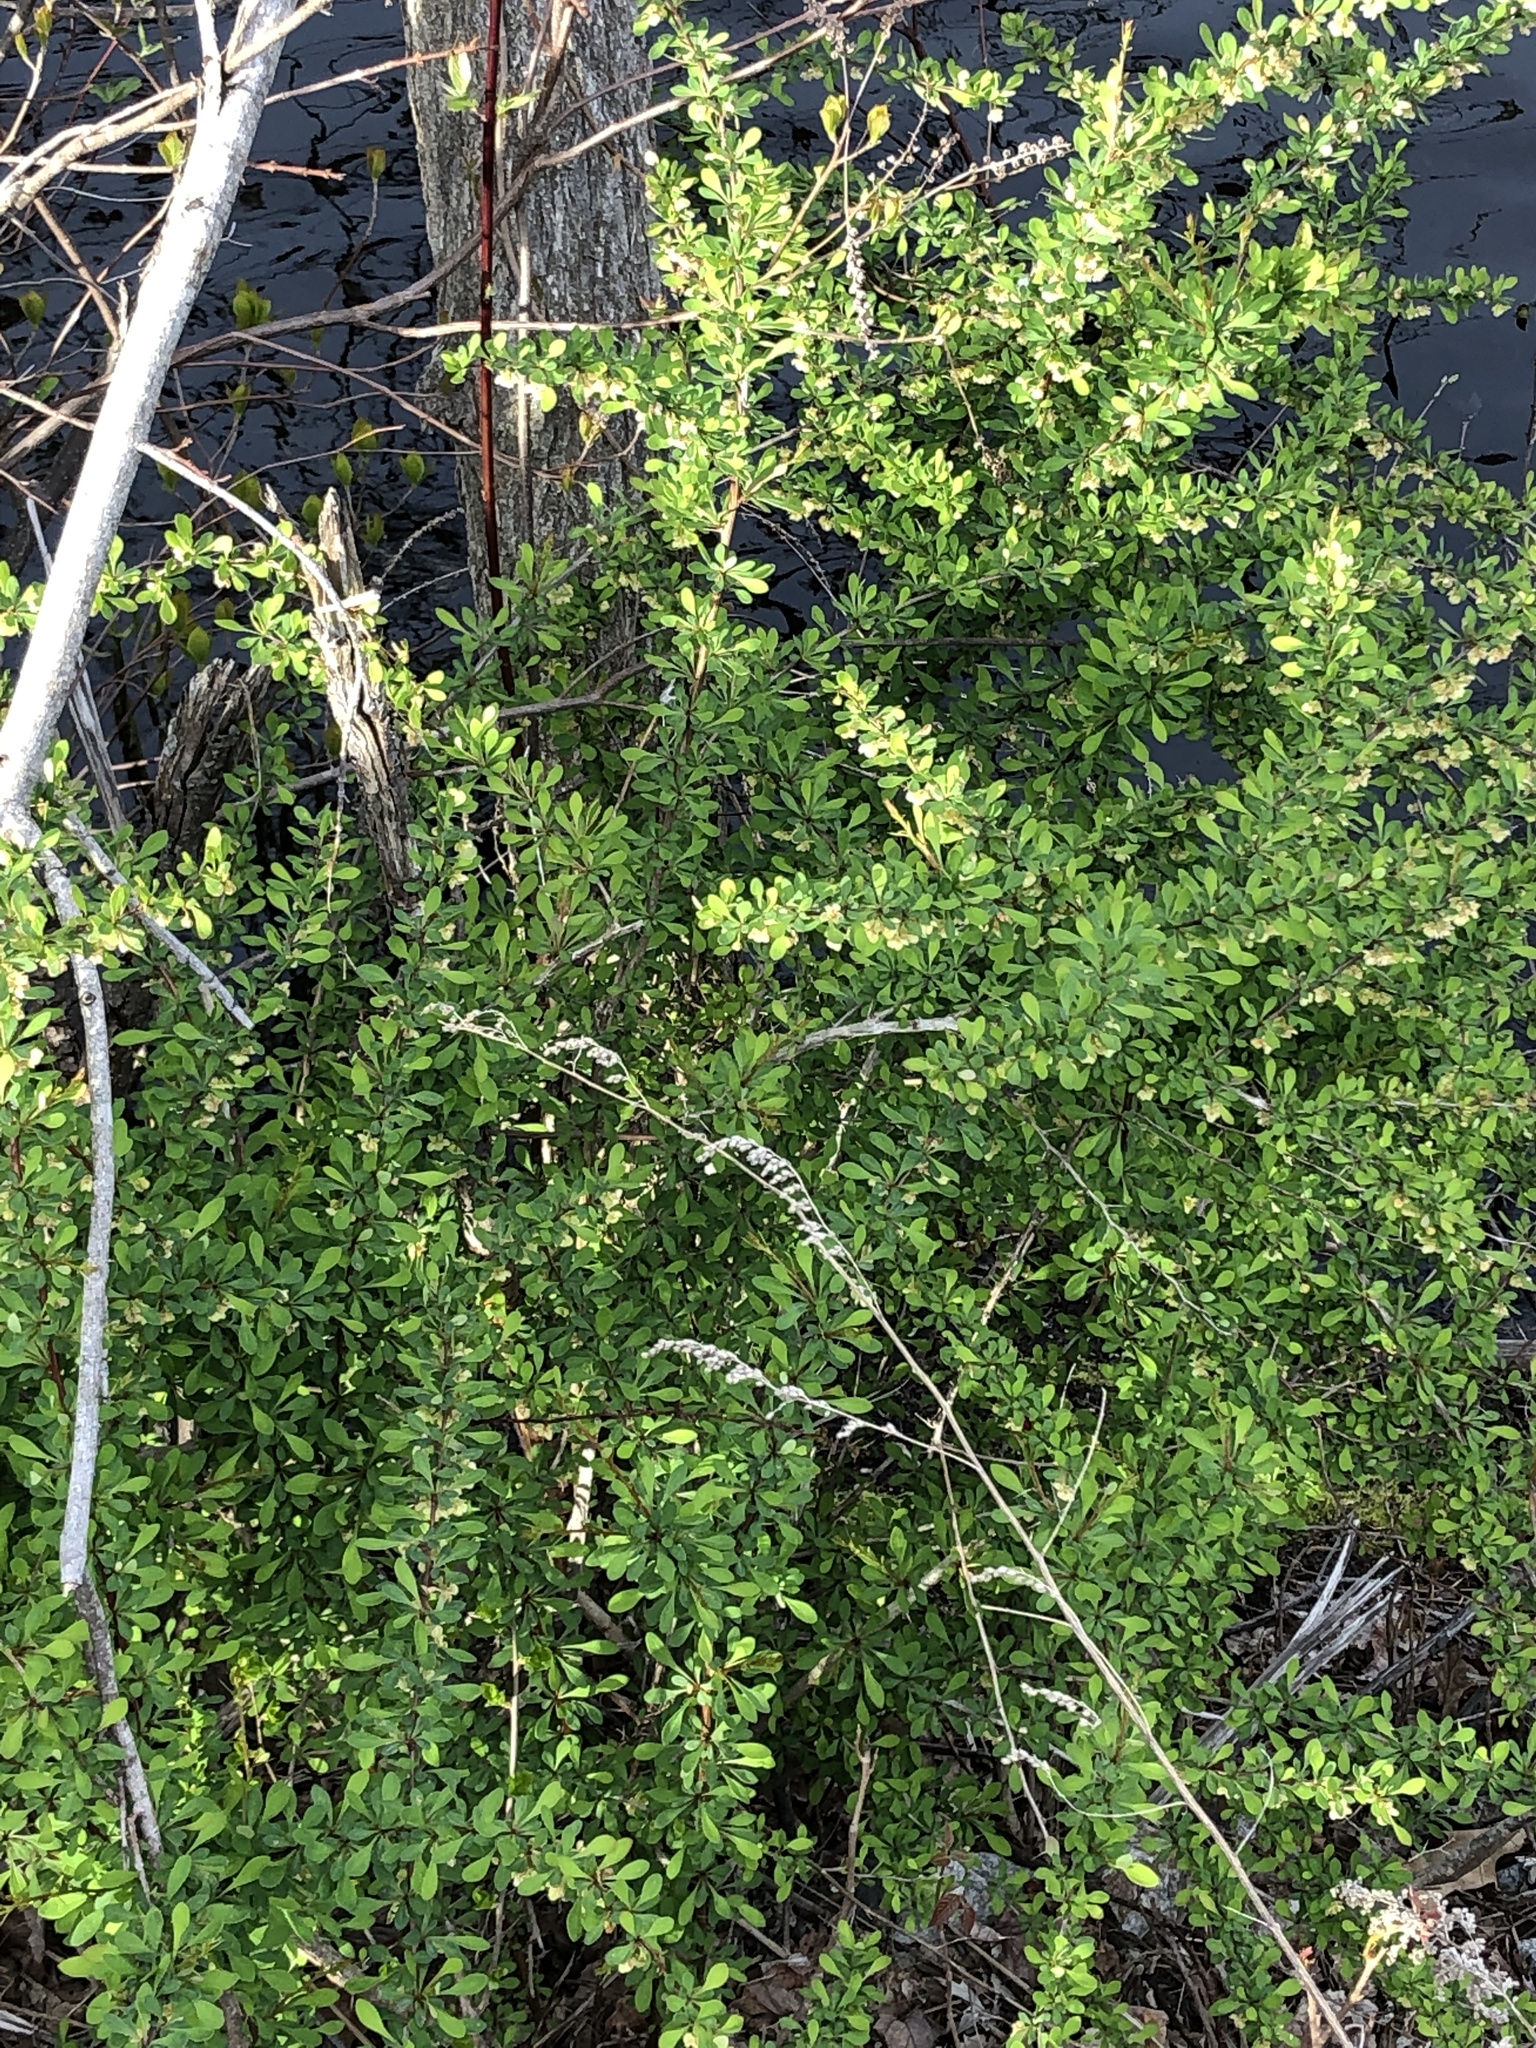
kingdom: Plantae
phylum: Tracheophyta
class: Magnoliopsida
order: Ranunculales
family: Berberidaceae
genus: Berberis
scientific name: Berberis thunbergii
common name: Japanese barberry
